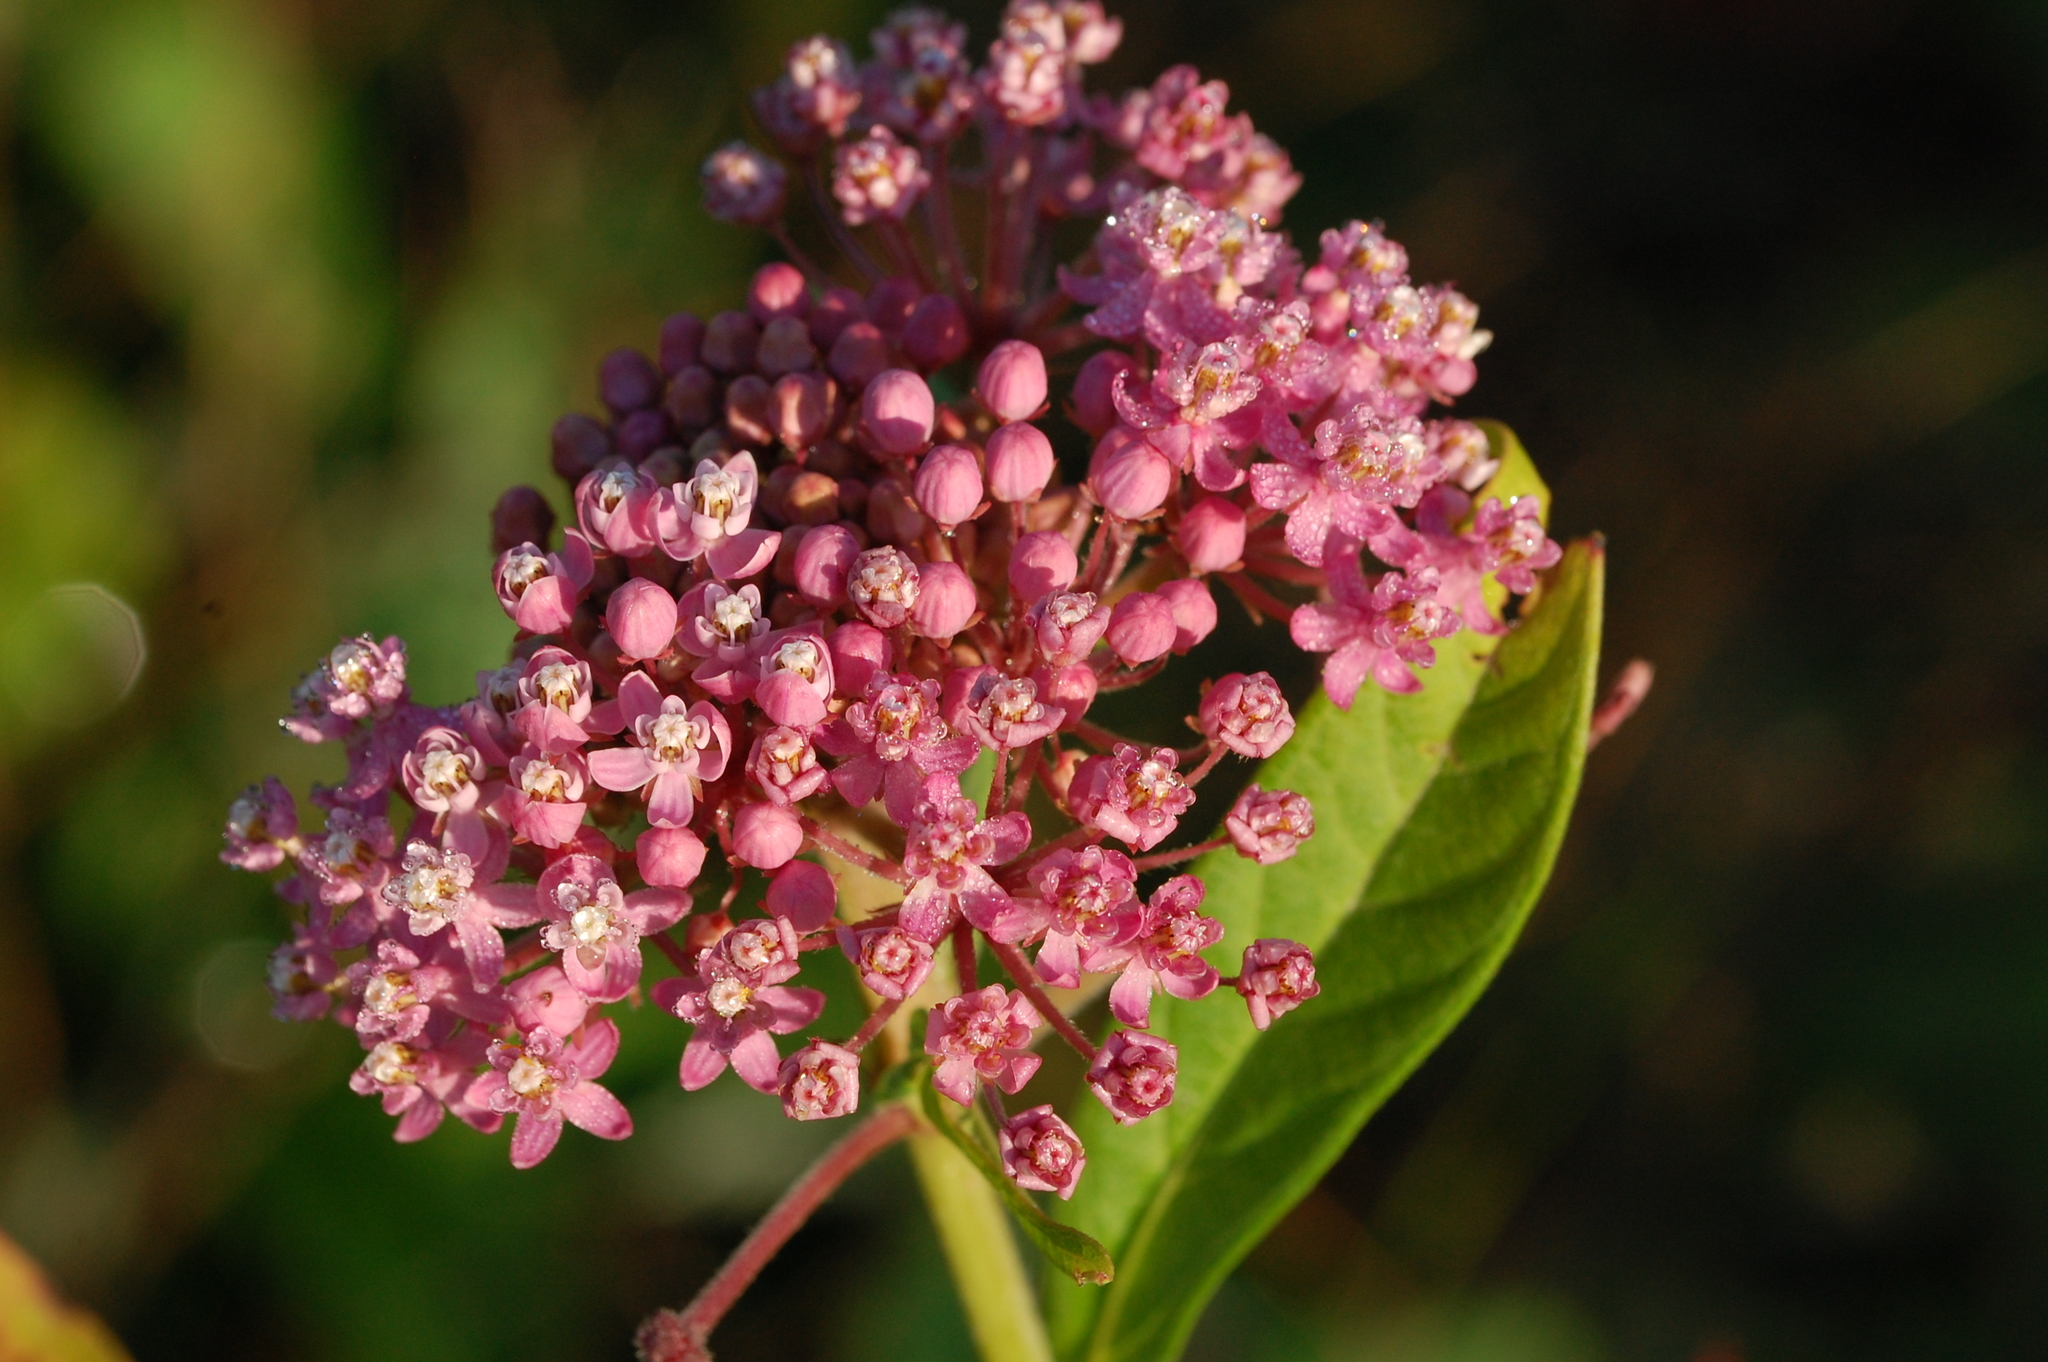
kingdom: Plantae
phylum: Tracheophyta
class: Magnoliopsida
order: Gentianales
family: Apocynaceae
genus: Asclepias
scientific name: Asclepias incarnata
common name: Swamp milkweed
